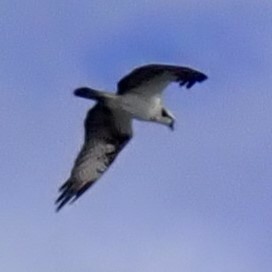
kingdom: Animalia
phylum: Chordata
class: Aves
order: Accipitriformes
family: Pandionidae
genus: Pandion
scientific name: Pandion haliaetus
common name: Osprey
